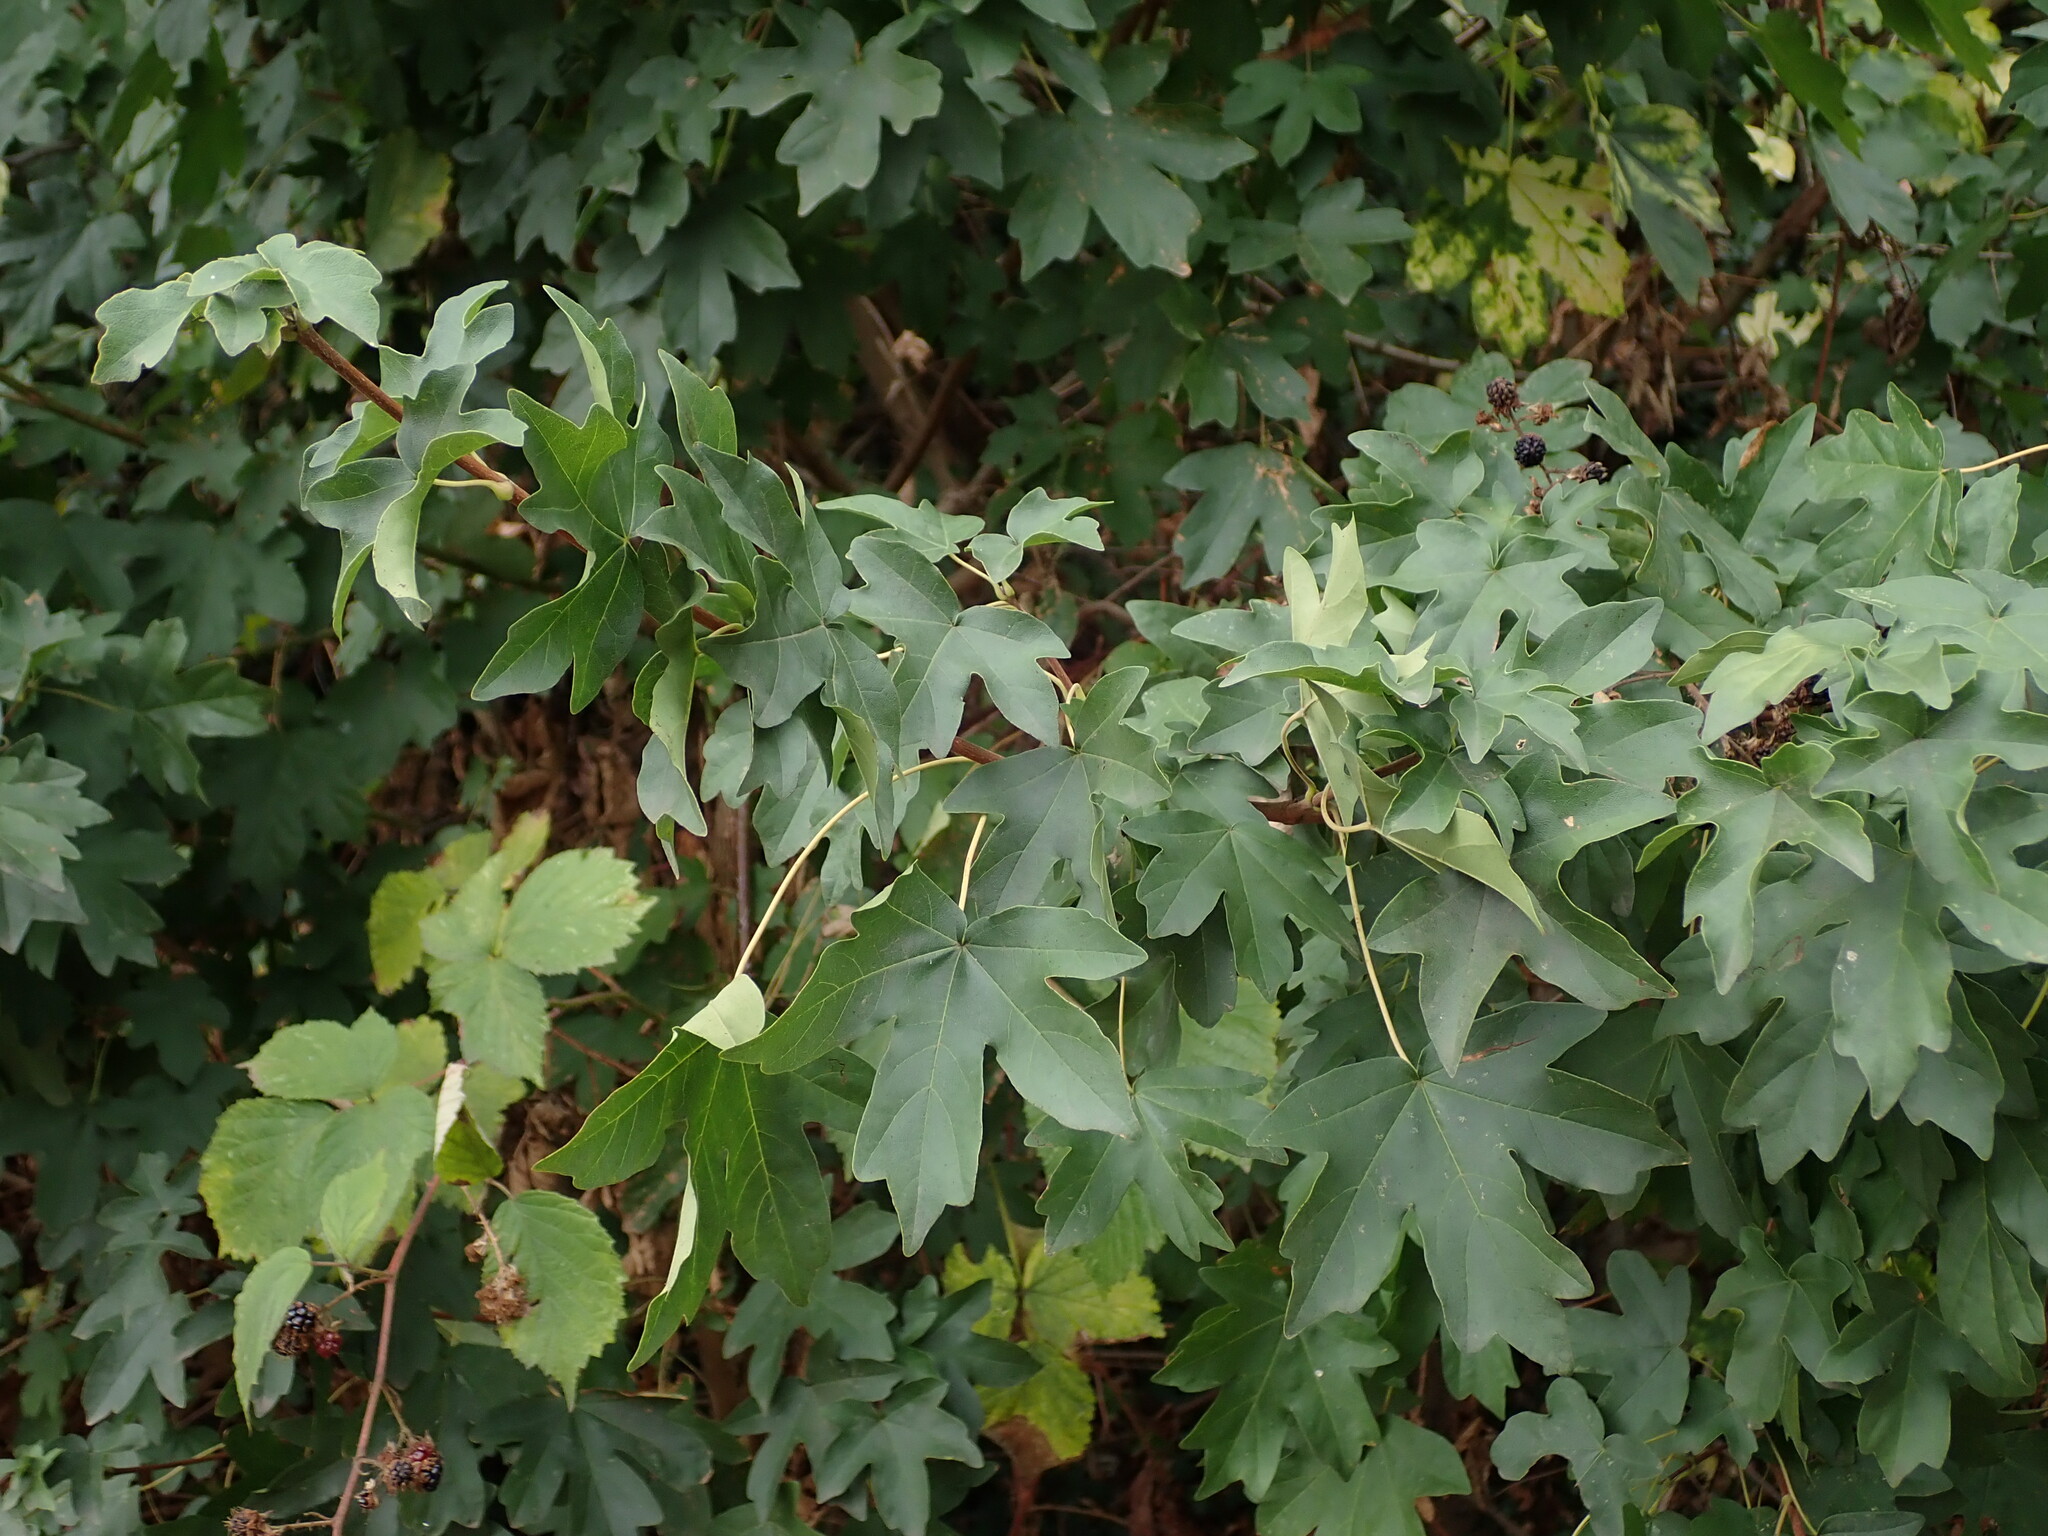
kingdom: Plantae
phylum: Tracheophyta
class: Magnoliopsida
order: Sapindales
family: Sapindaceae
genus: Acer
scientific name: Acer campestre
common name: Field maple
